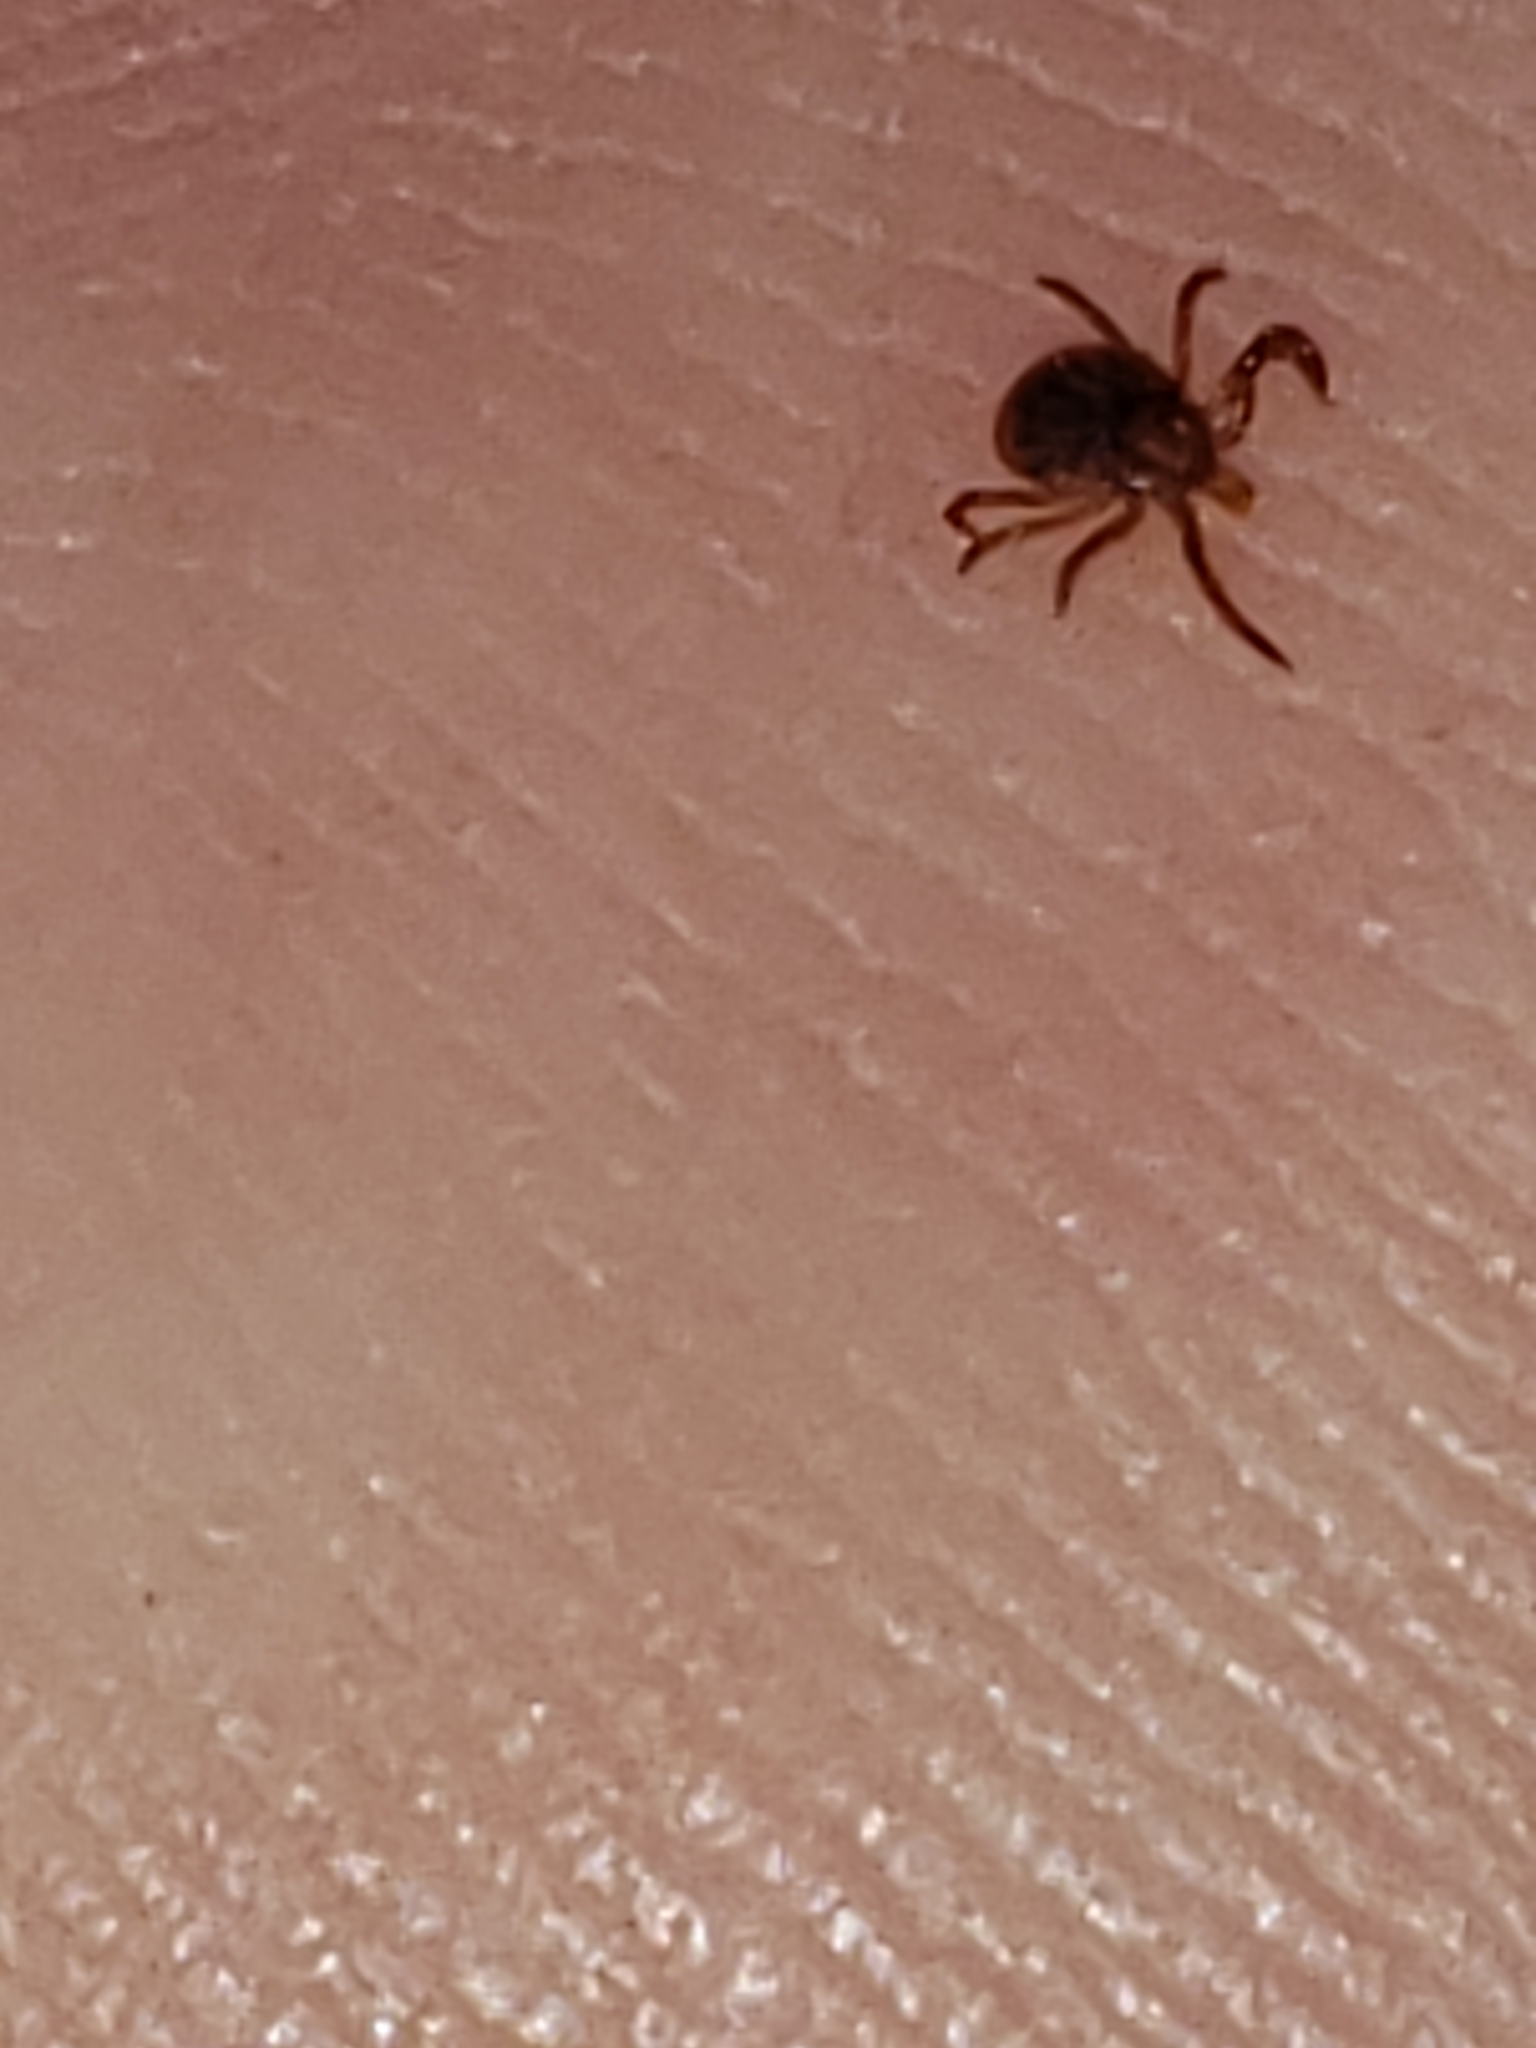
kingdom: Animalia
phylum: Arthropoda
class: Arachnida
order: Ixodida
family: Ixodidae
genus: Amblyomma
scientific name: Amblyomma americanum
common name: Lone star tick
